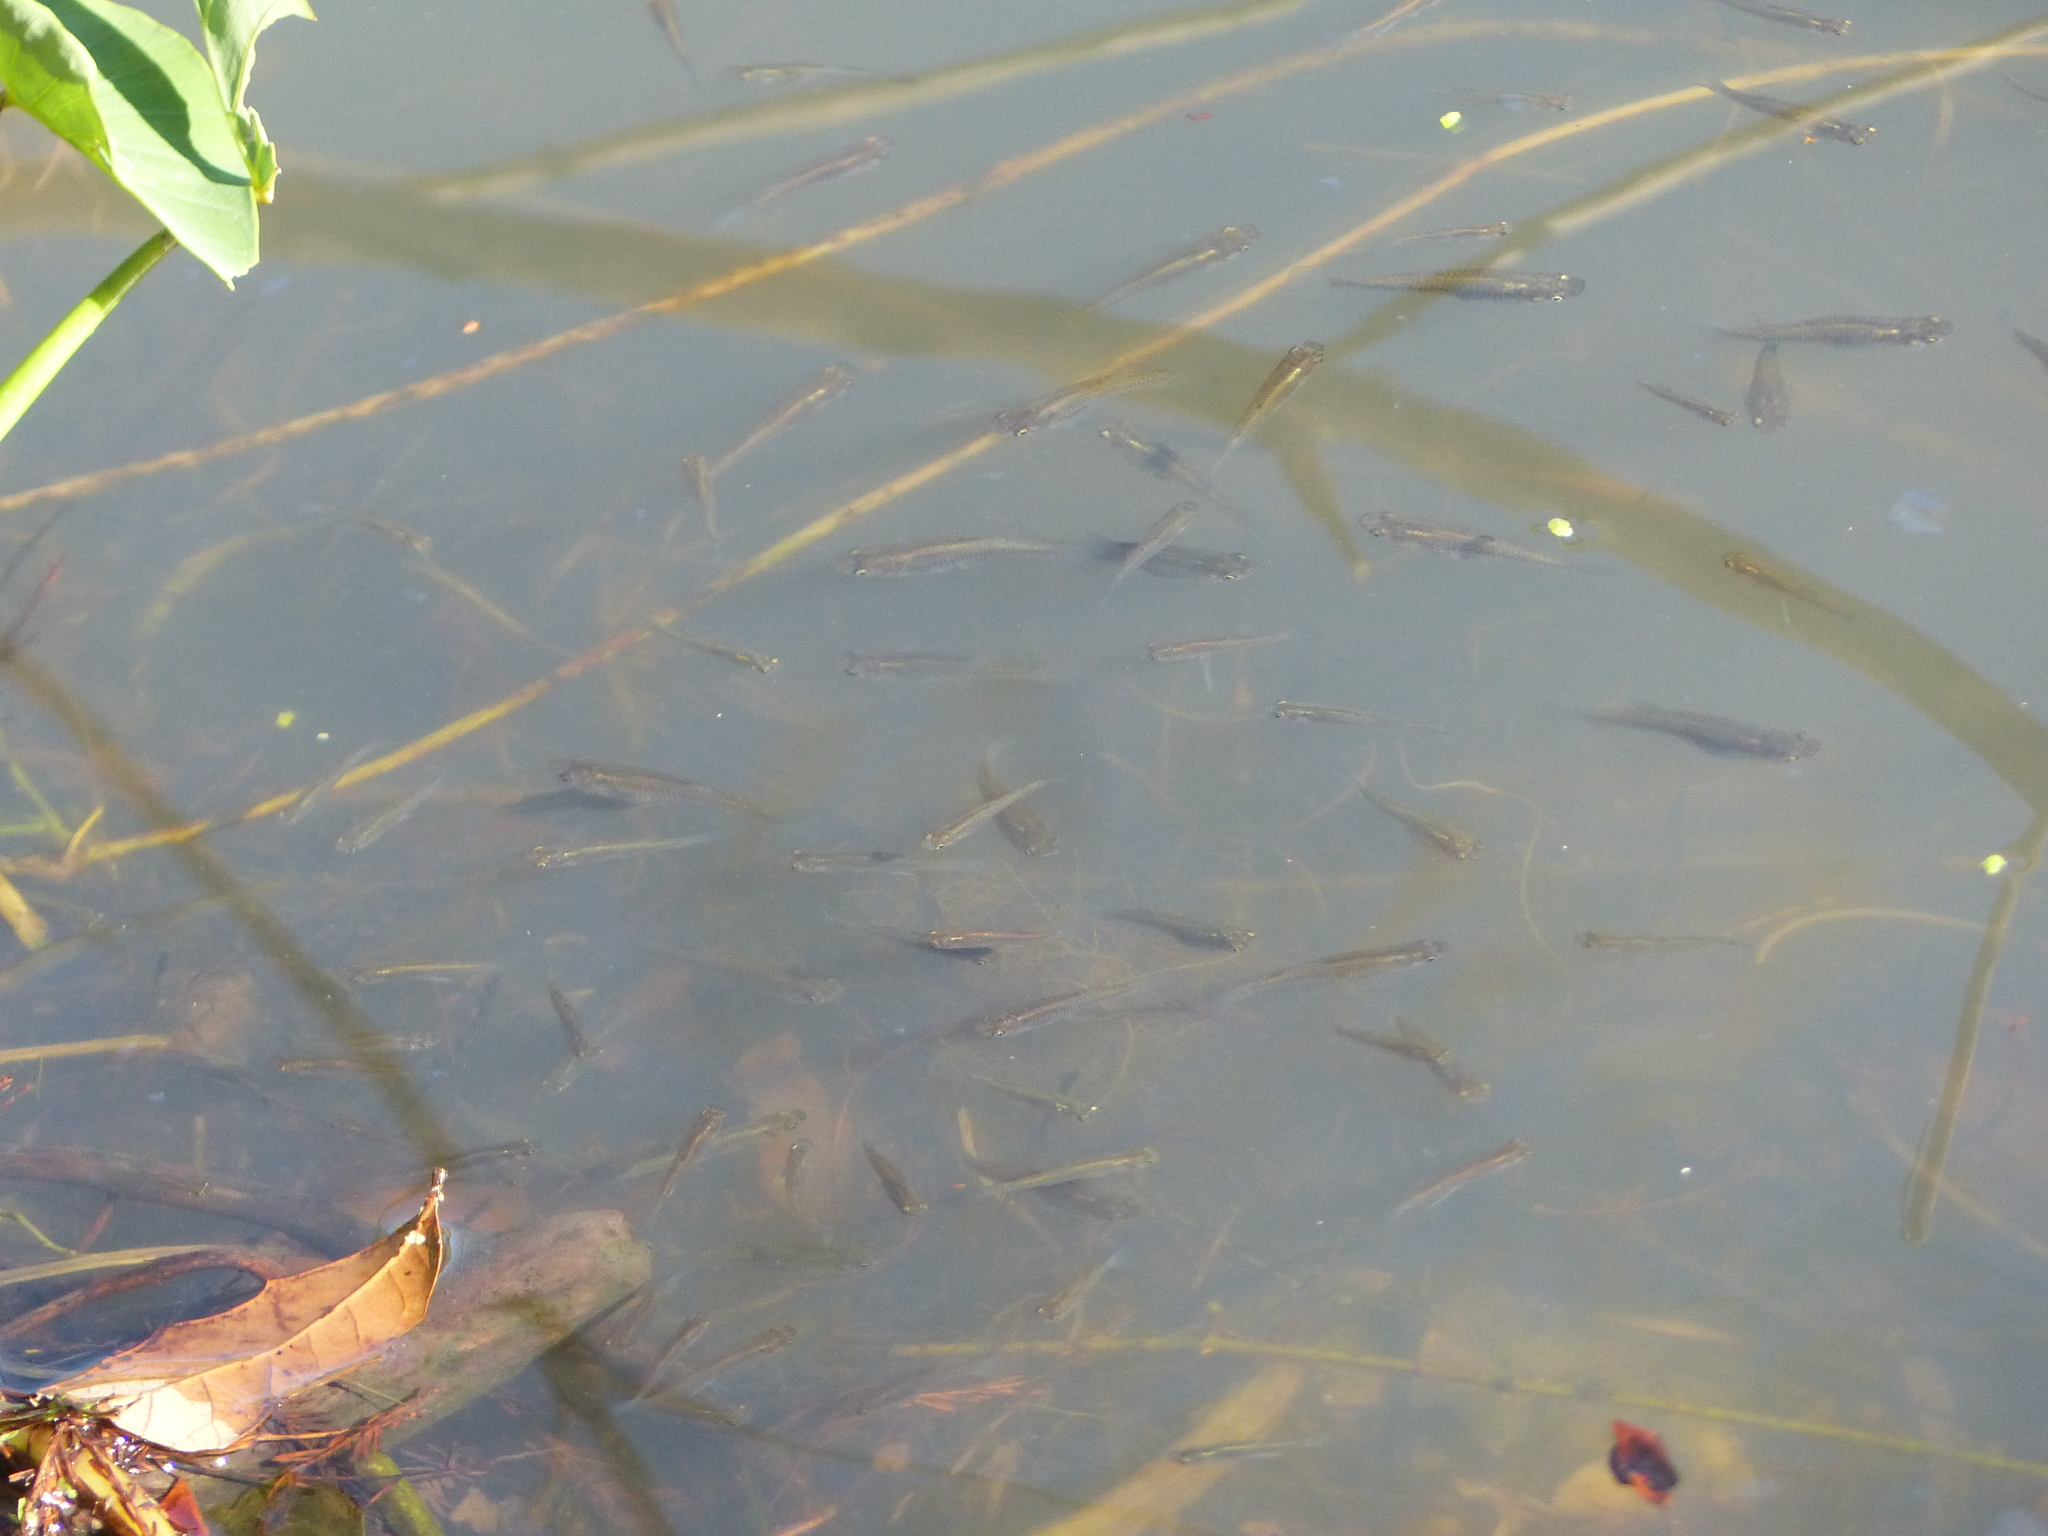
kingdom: Animalia
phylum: Chordata
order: Cyprinodontiformes
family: Poeciliidae
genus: Gambusia
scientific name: Gambusia affinis
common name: Mosquitofish
